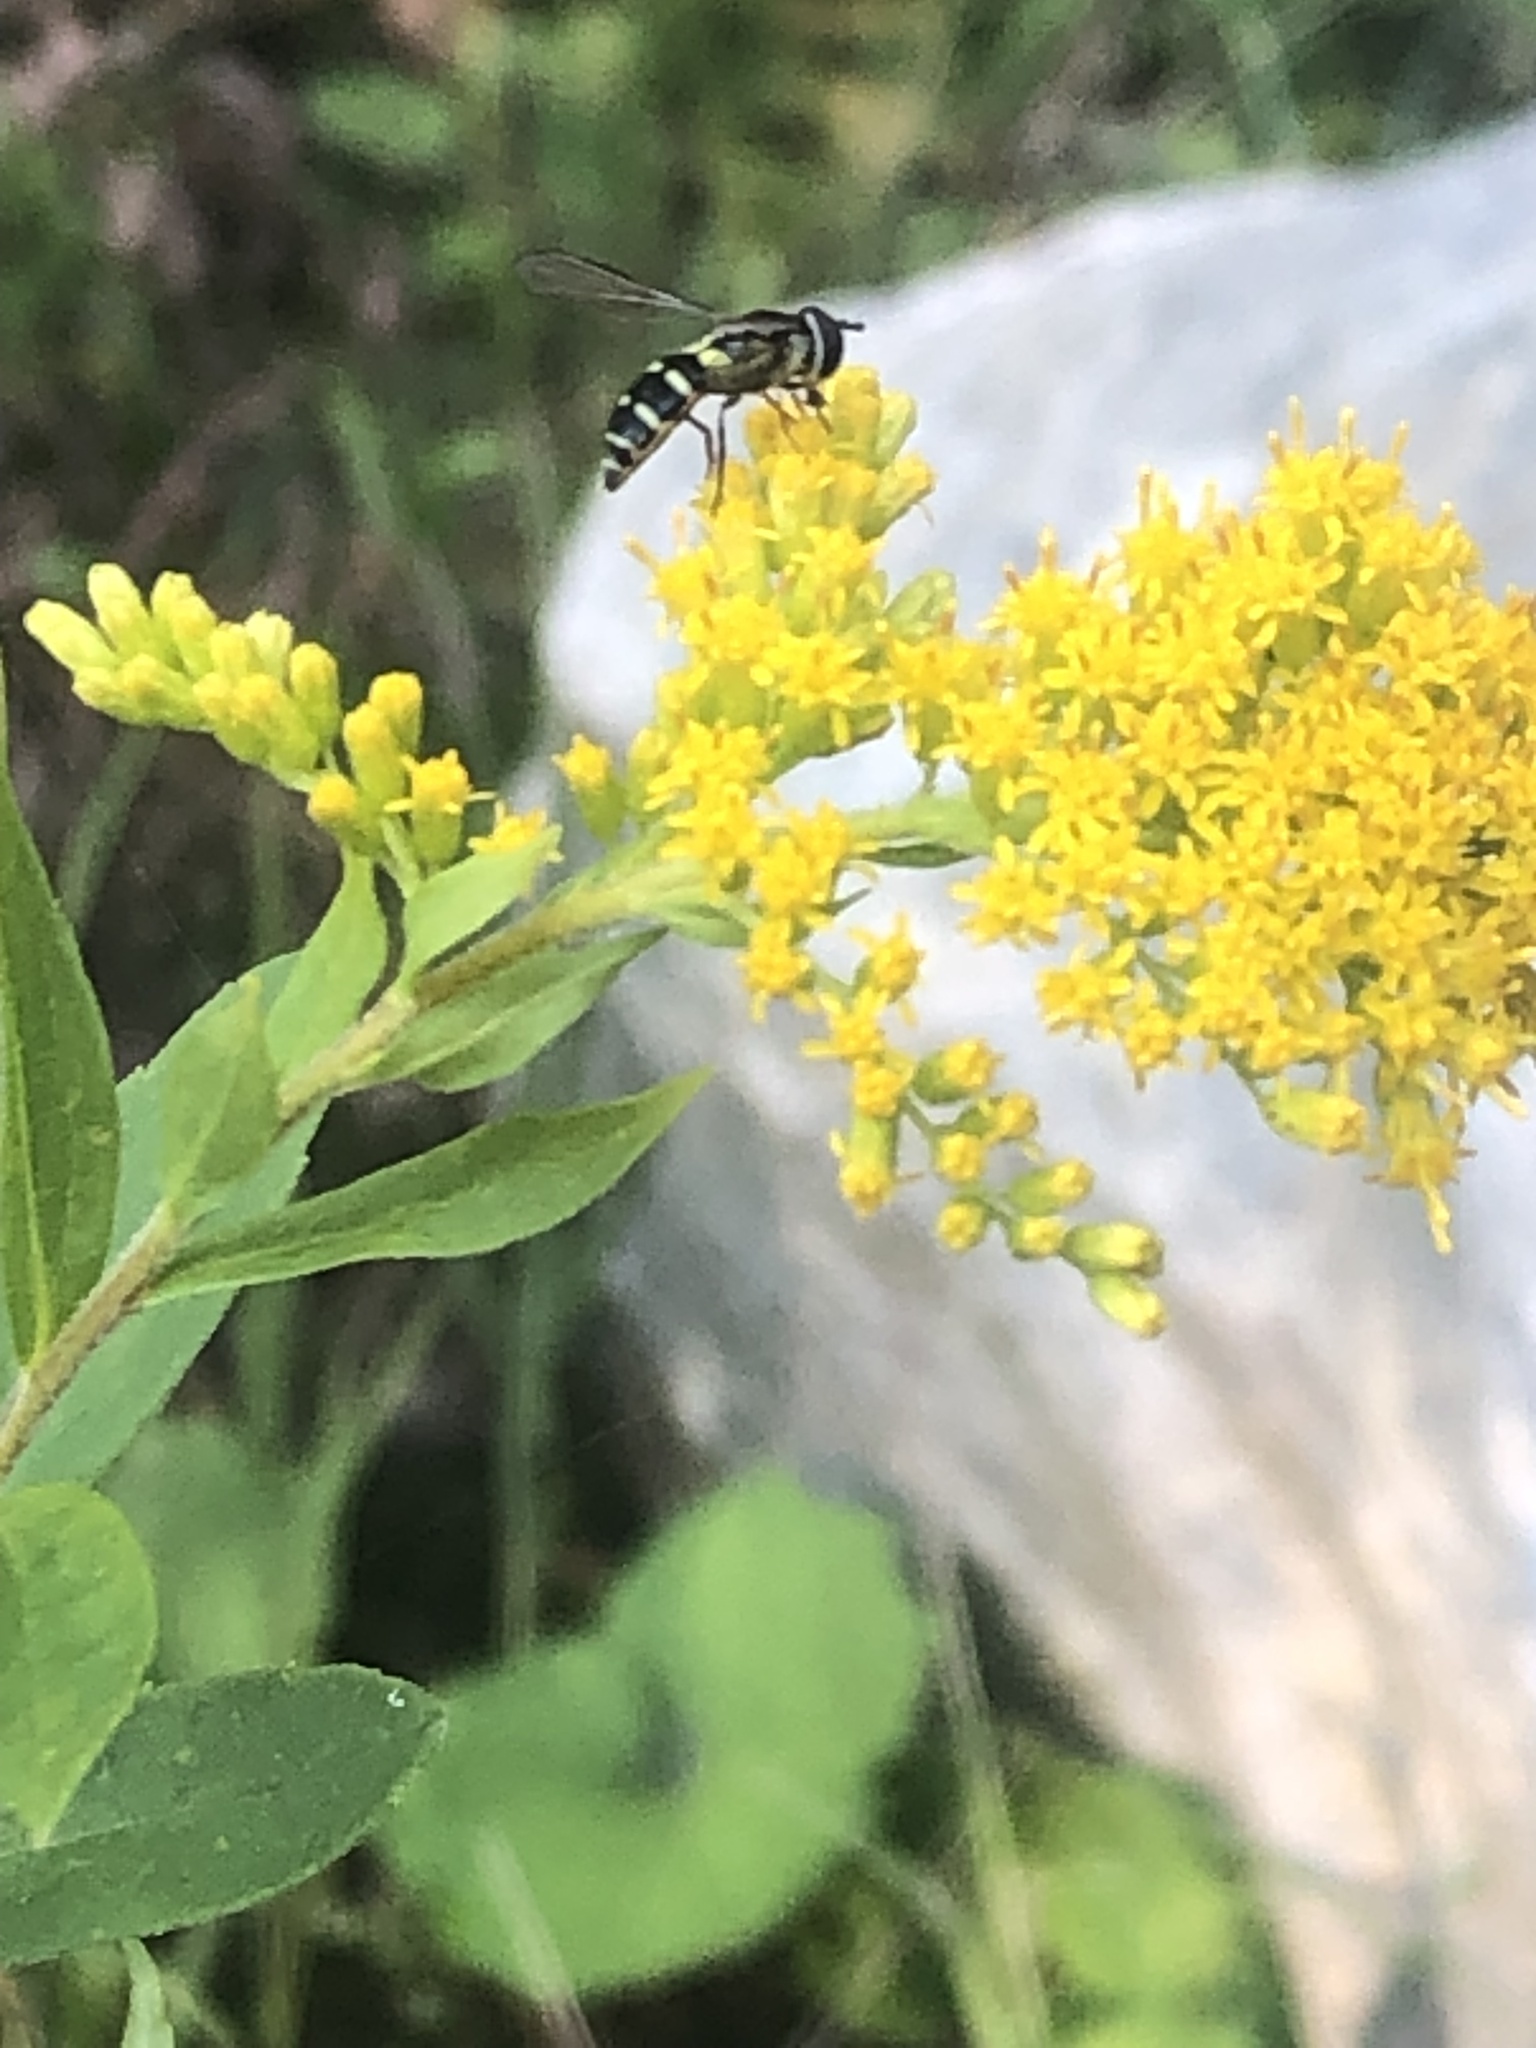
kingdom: Animalia
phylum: Arthropoda
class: Insecta
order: Diptera
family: Syrphidae
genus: Melangyna
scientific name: Melangyna fisherii
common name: Large-spotted halfband
